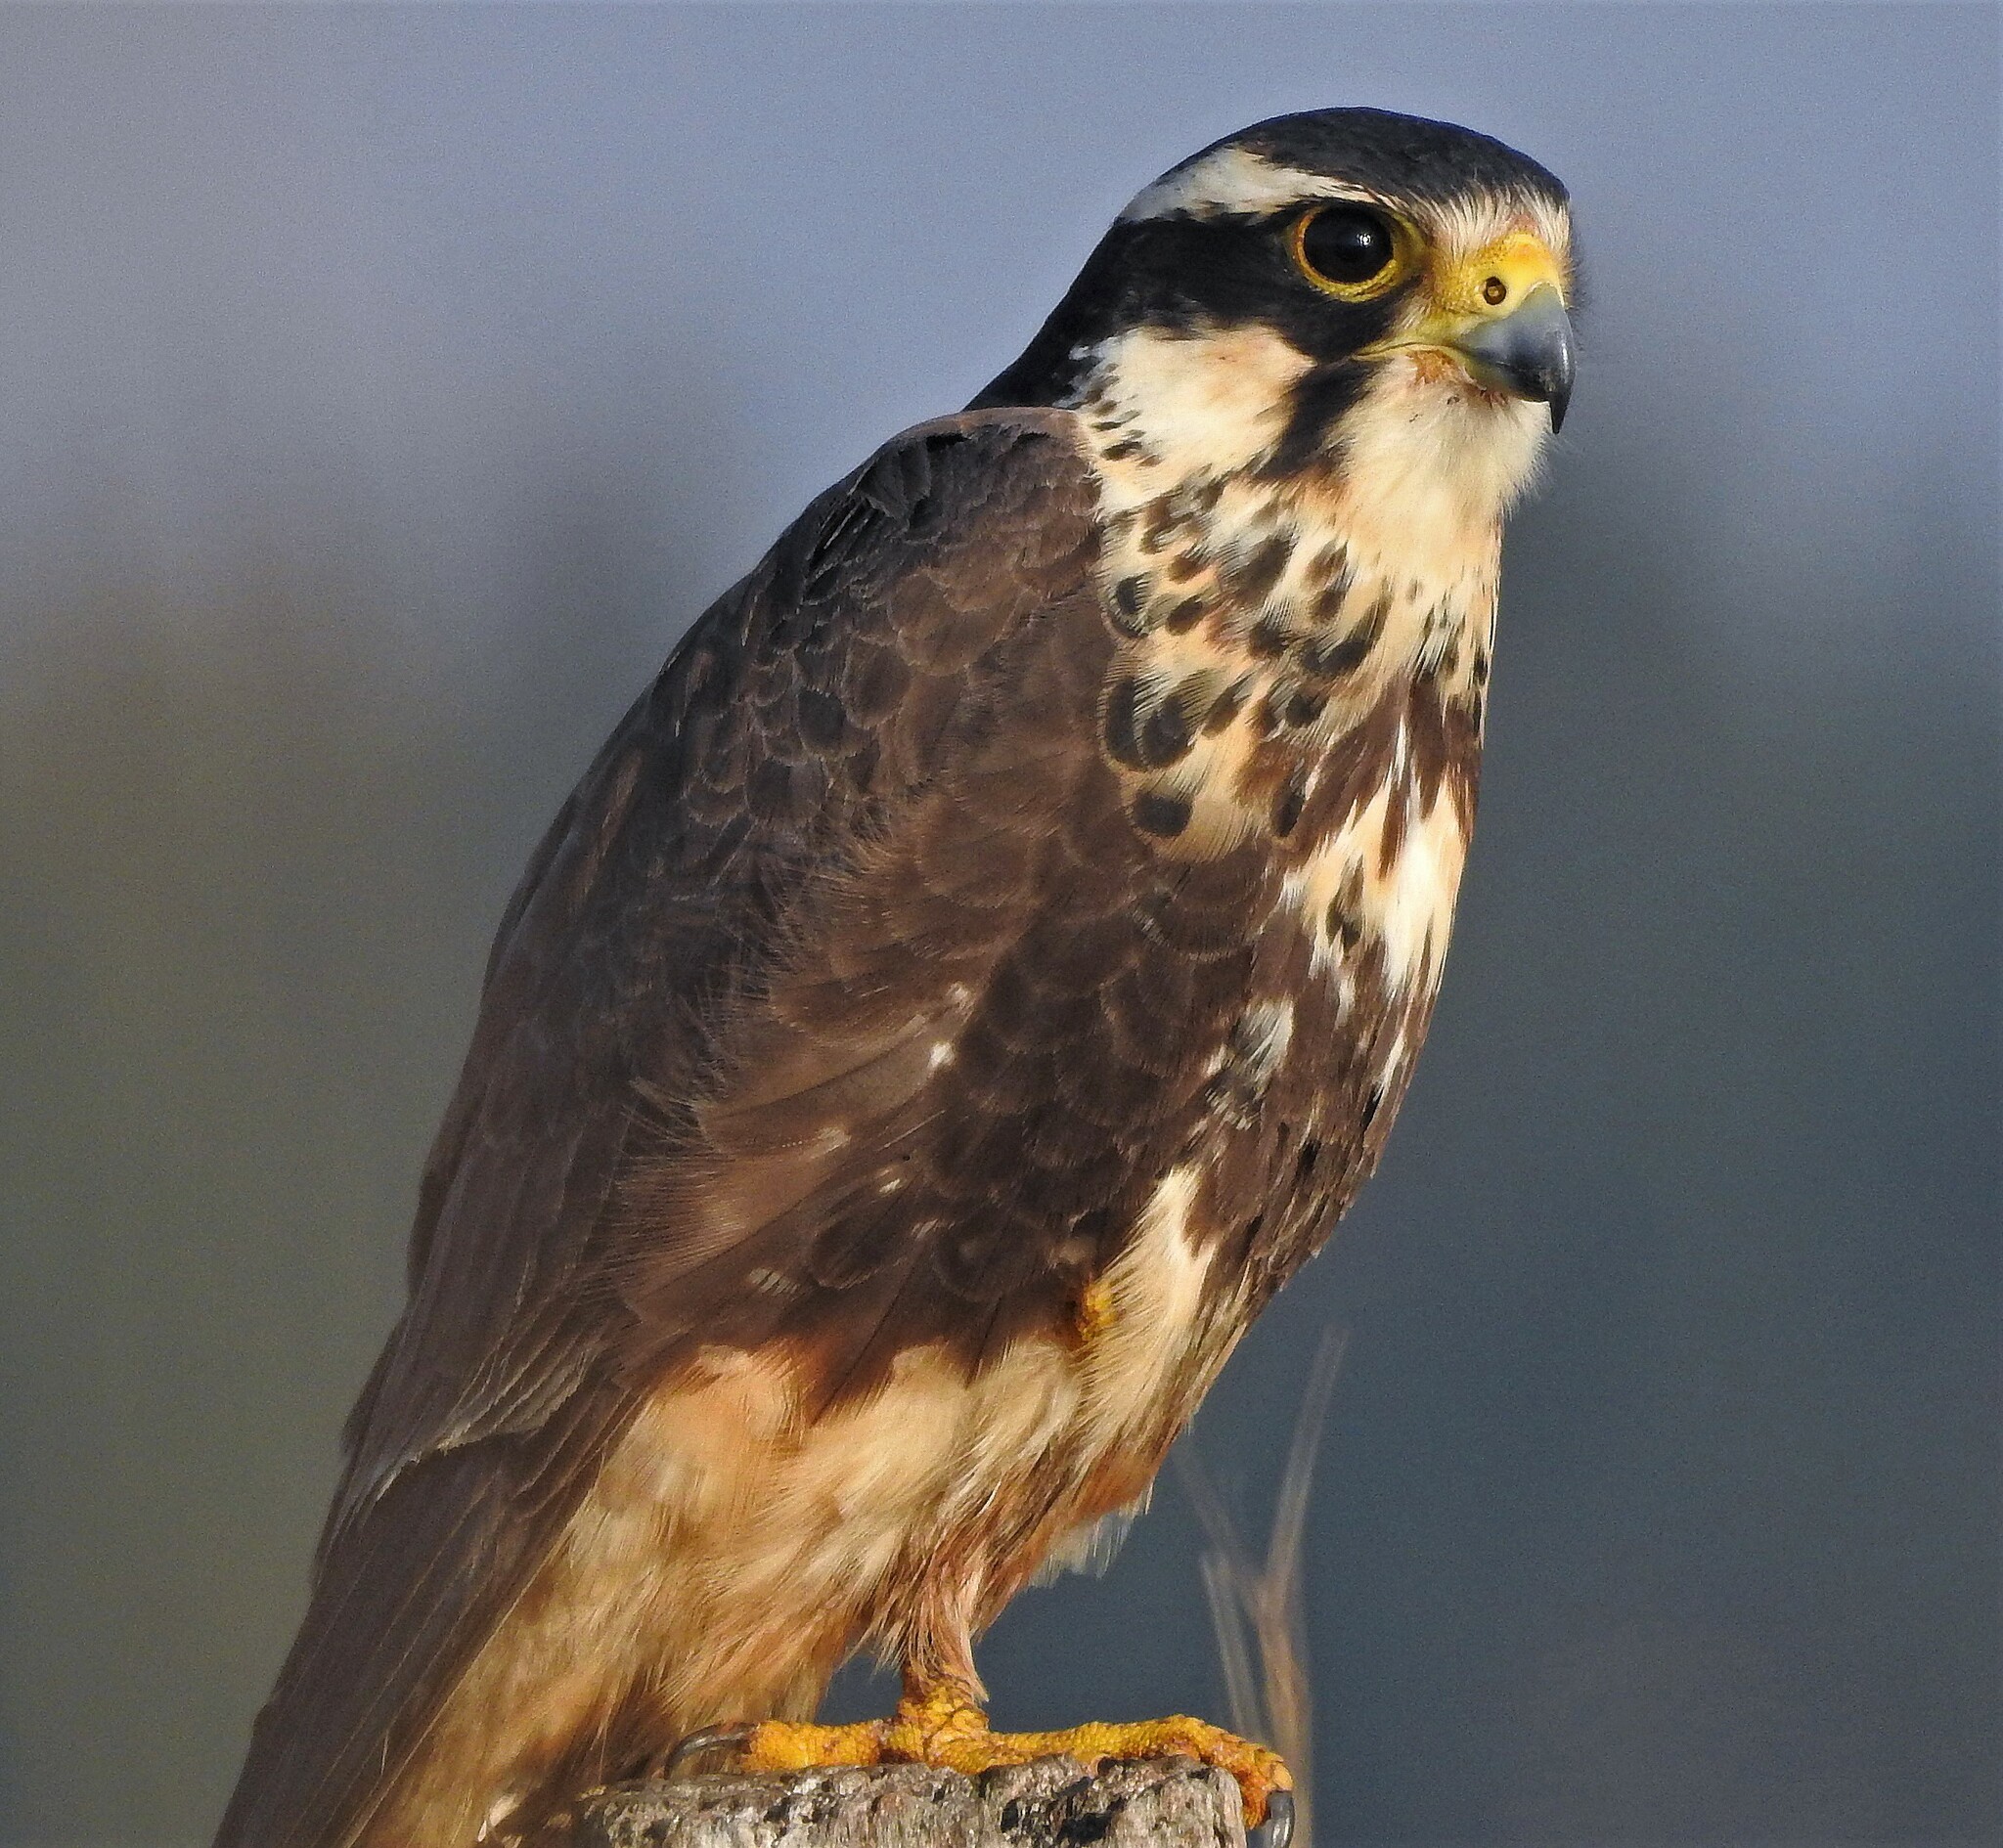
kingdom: Animalia
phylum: Chordata
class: Aves
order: Falconiformes
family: Falconidae
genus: Falco
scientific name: Falco femoralis
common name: Aplomado falcon
